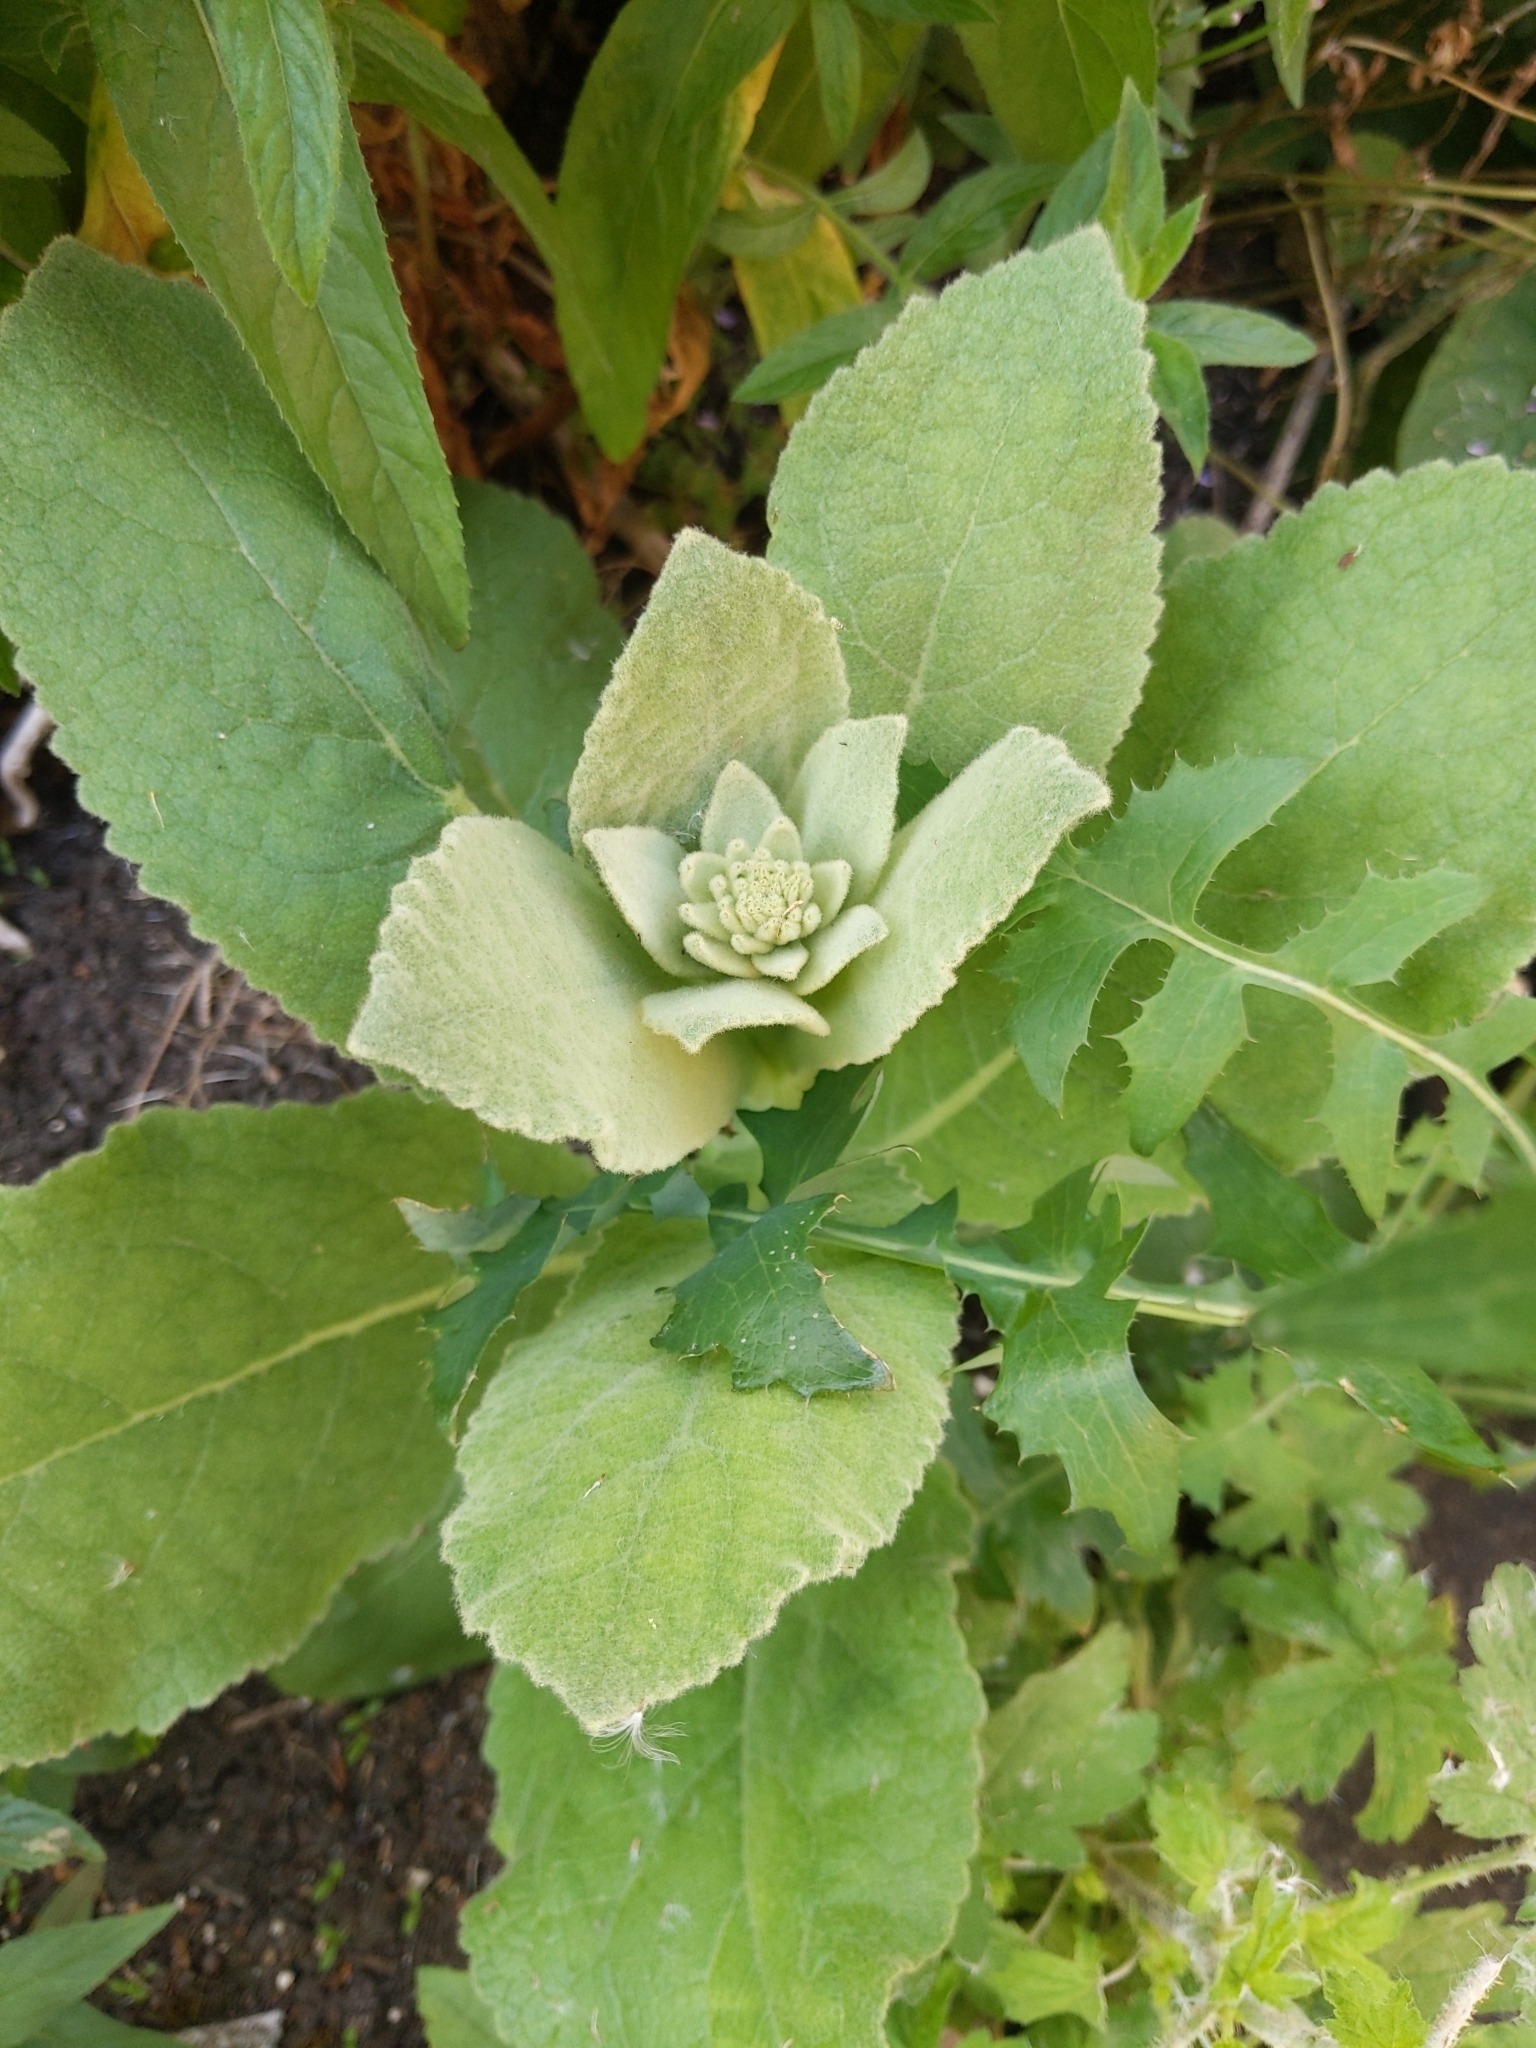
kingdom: Plantae
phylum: Tracheophyta
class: Magnoliopsida
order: Lamiales
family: Scrophulariaceae
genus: Verbascum
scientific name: Verbascum thapsus
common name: Common mullein
